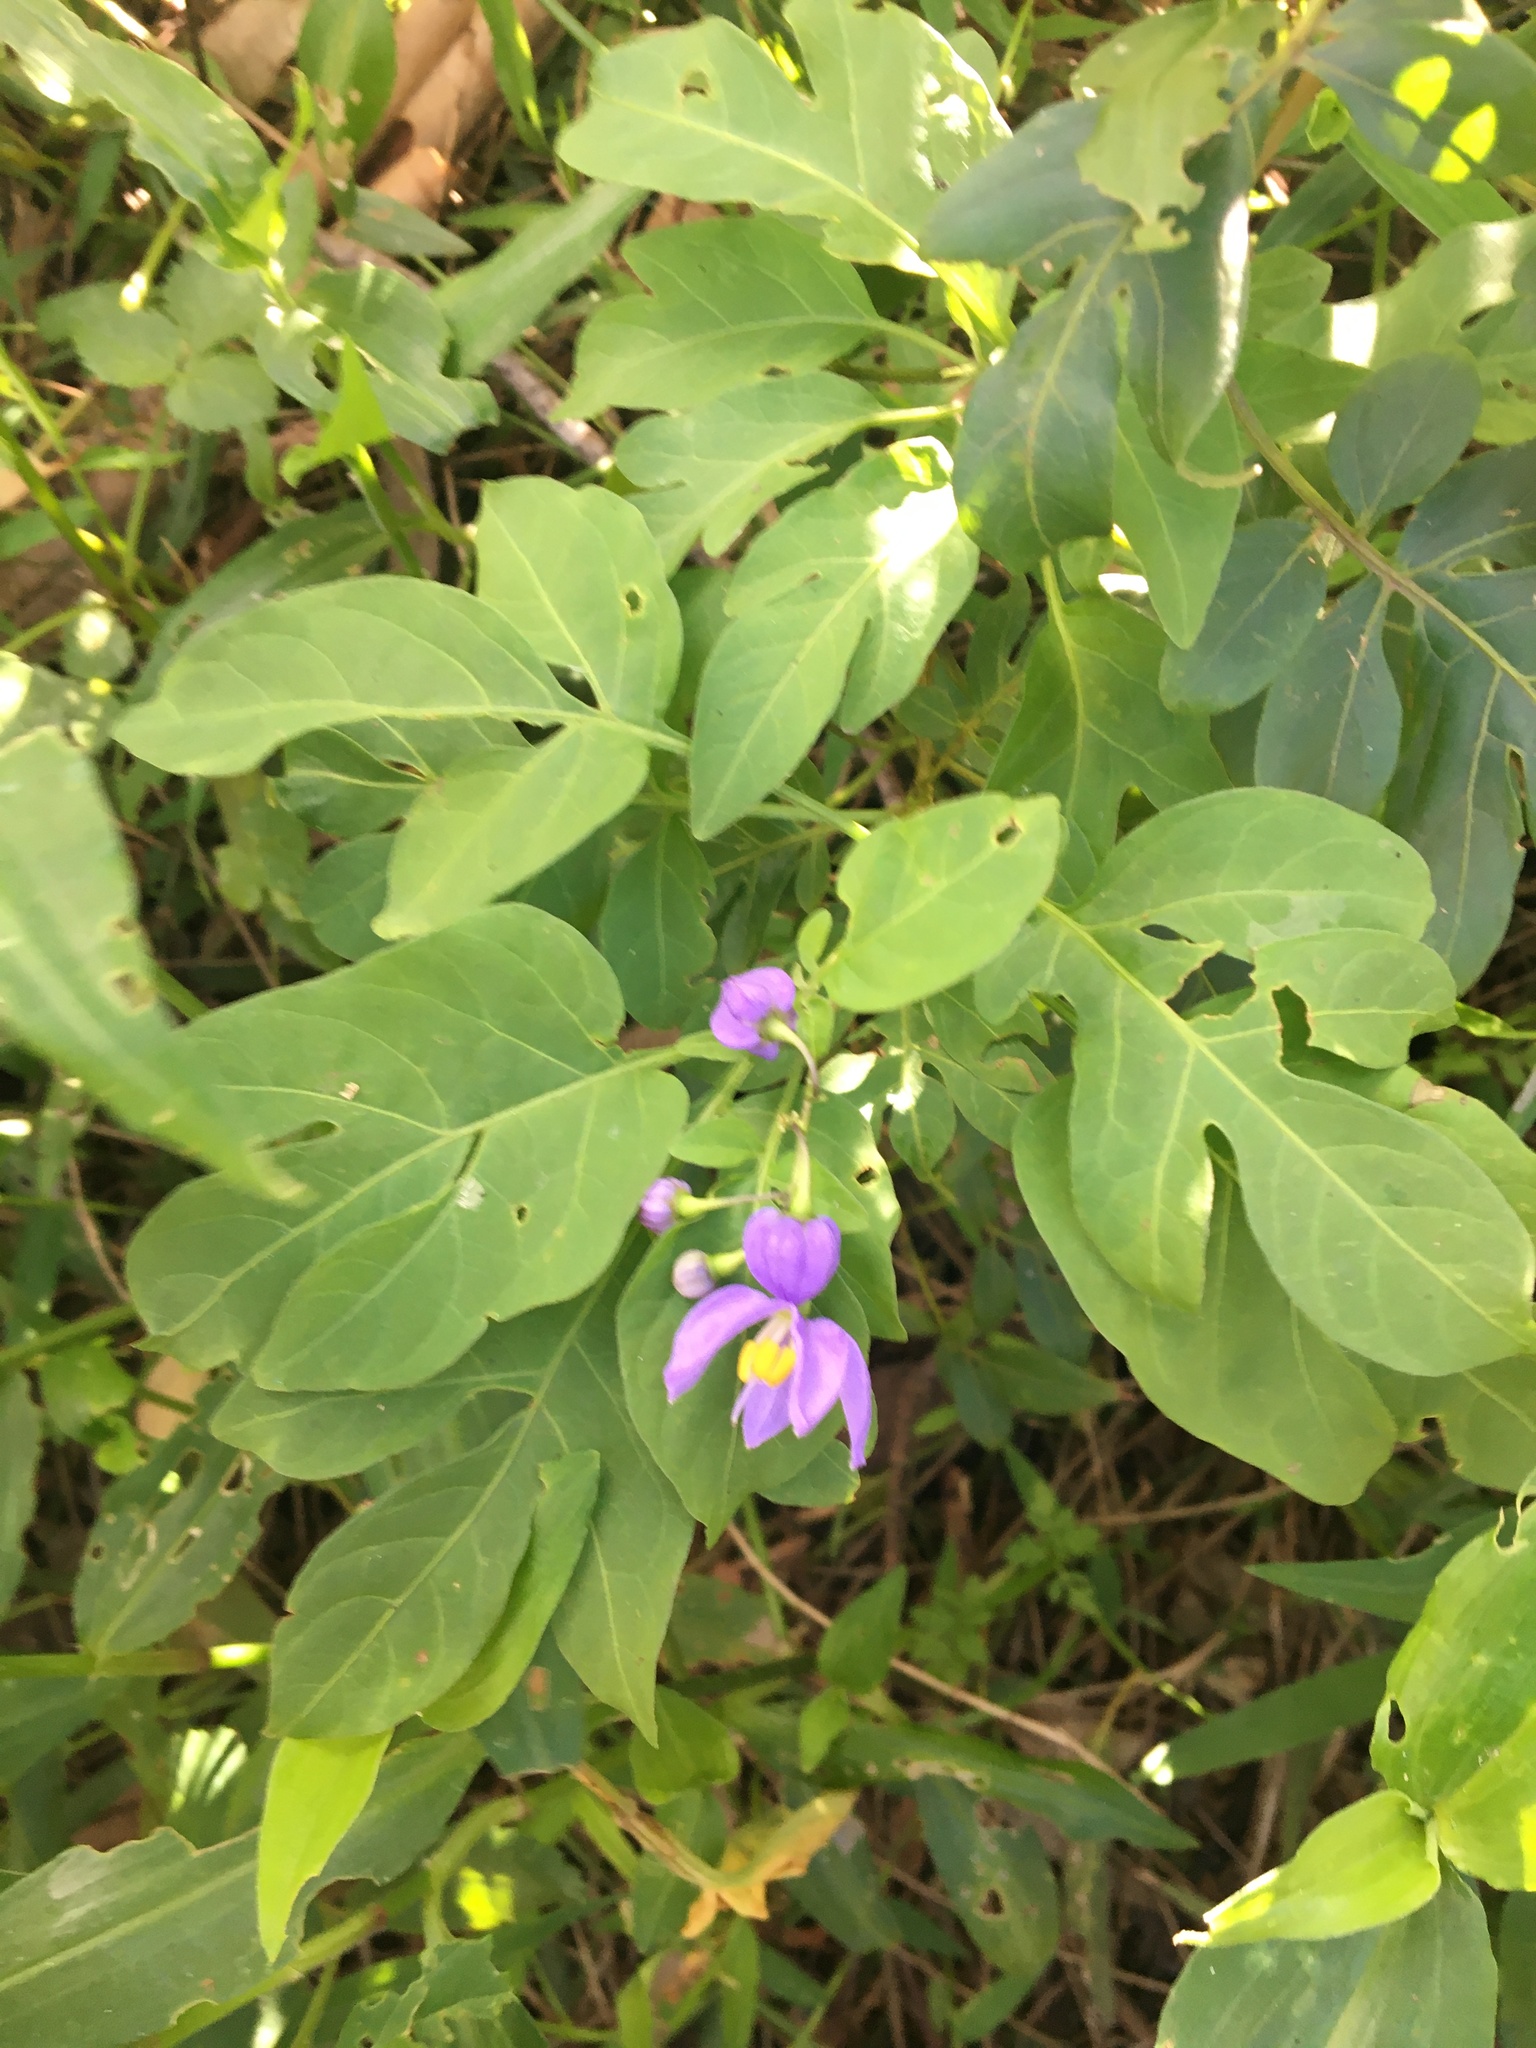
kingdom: Plantae
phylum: Tracheophyta
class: Magnoliopsida
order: Solanales
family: Solanaceae
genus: Solanum
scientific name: Solanum seaforthianum
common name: Brazilian nightshade
